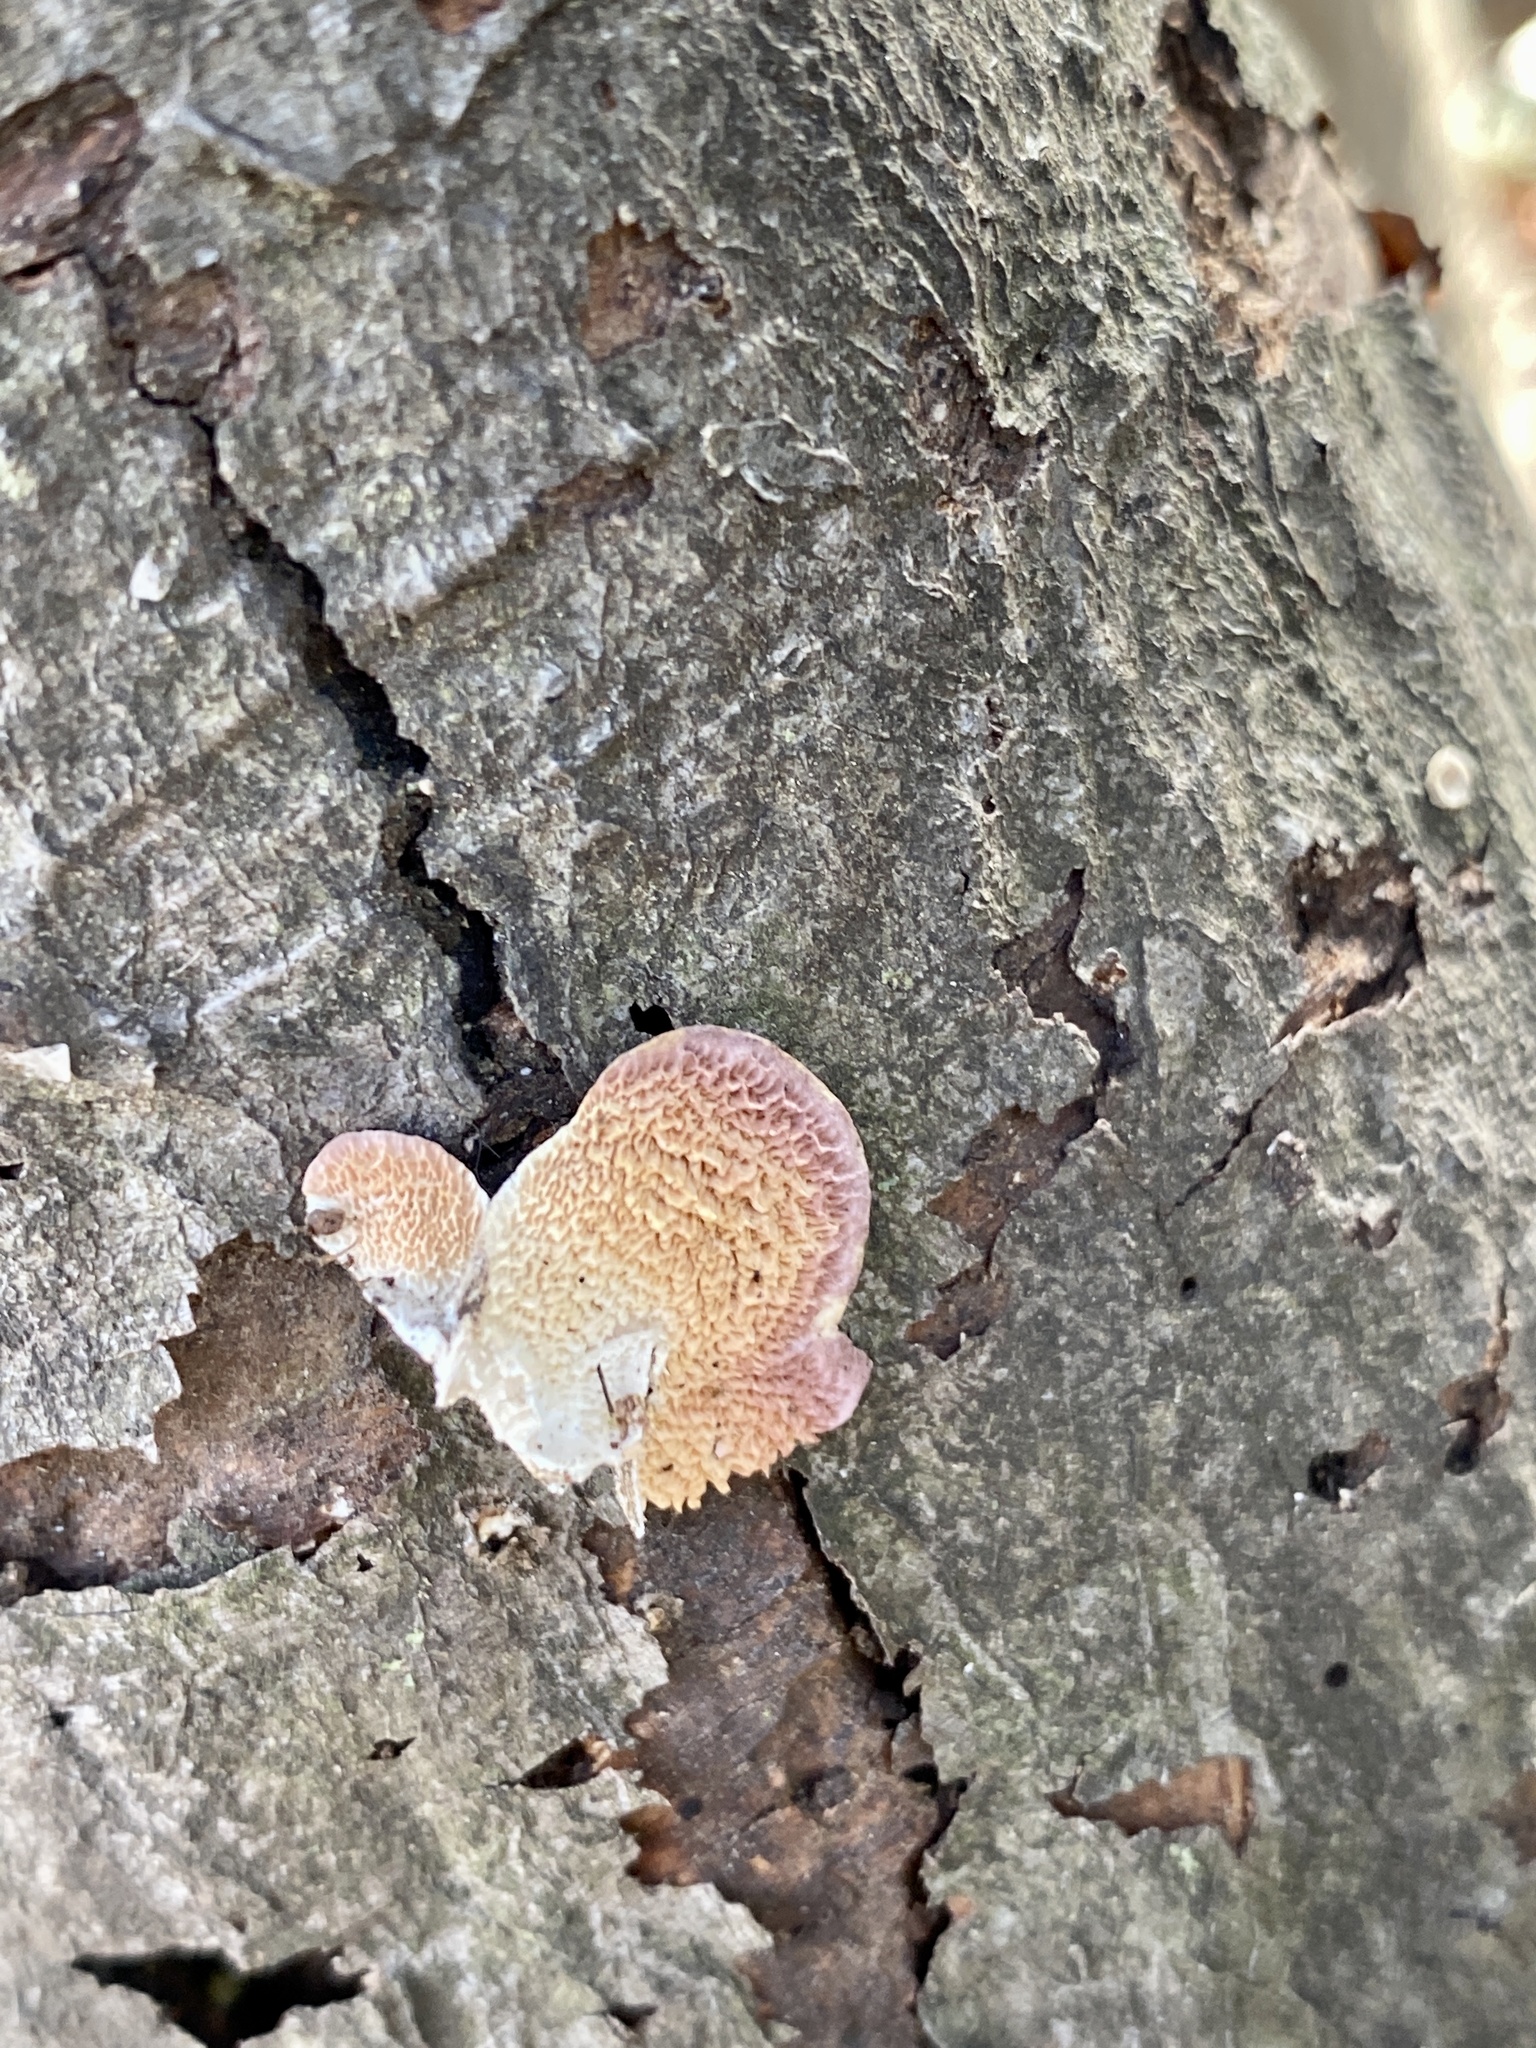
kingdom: Fungi
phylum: Basidiomycota
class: Agaricomycetes
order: Hymenochaetales
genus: Trichaptum
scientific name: Trichaptum biforme
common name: Violet-toothed polypore
